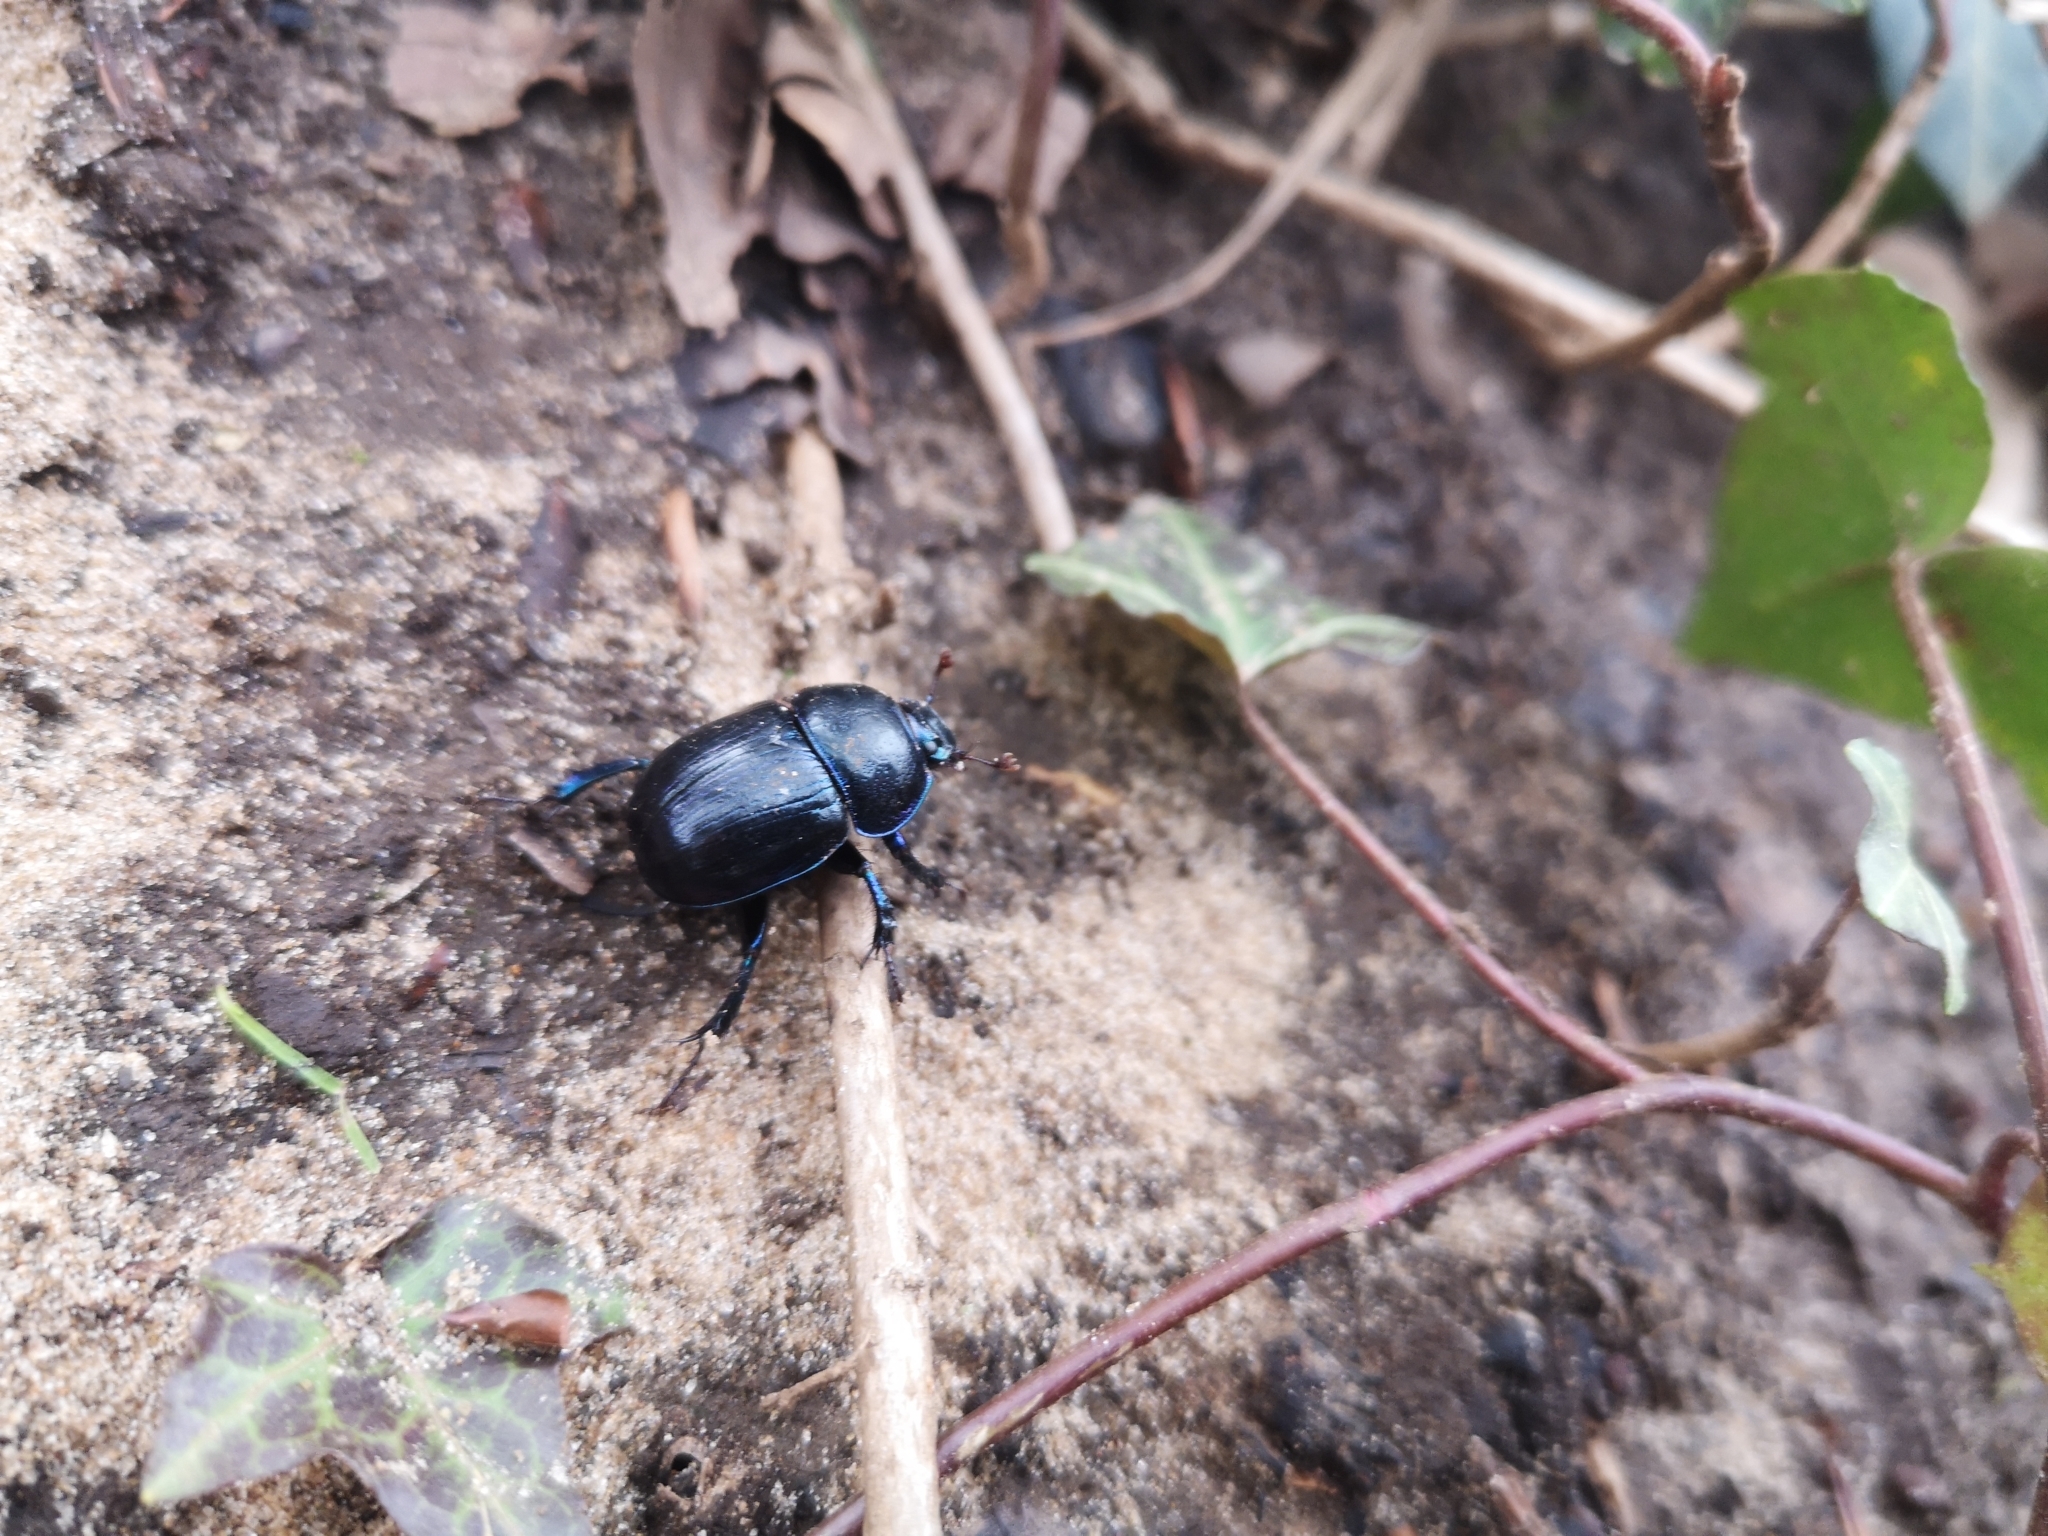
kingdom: Animalia
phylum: Arthropoda
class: Insecta
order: Coleoptera
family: Geotrupidae
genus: Anoplotrupes
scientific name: Anoplotrupes stercorosus
